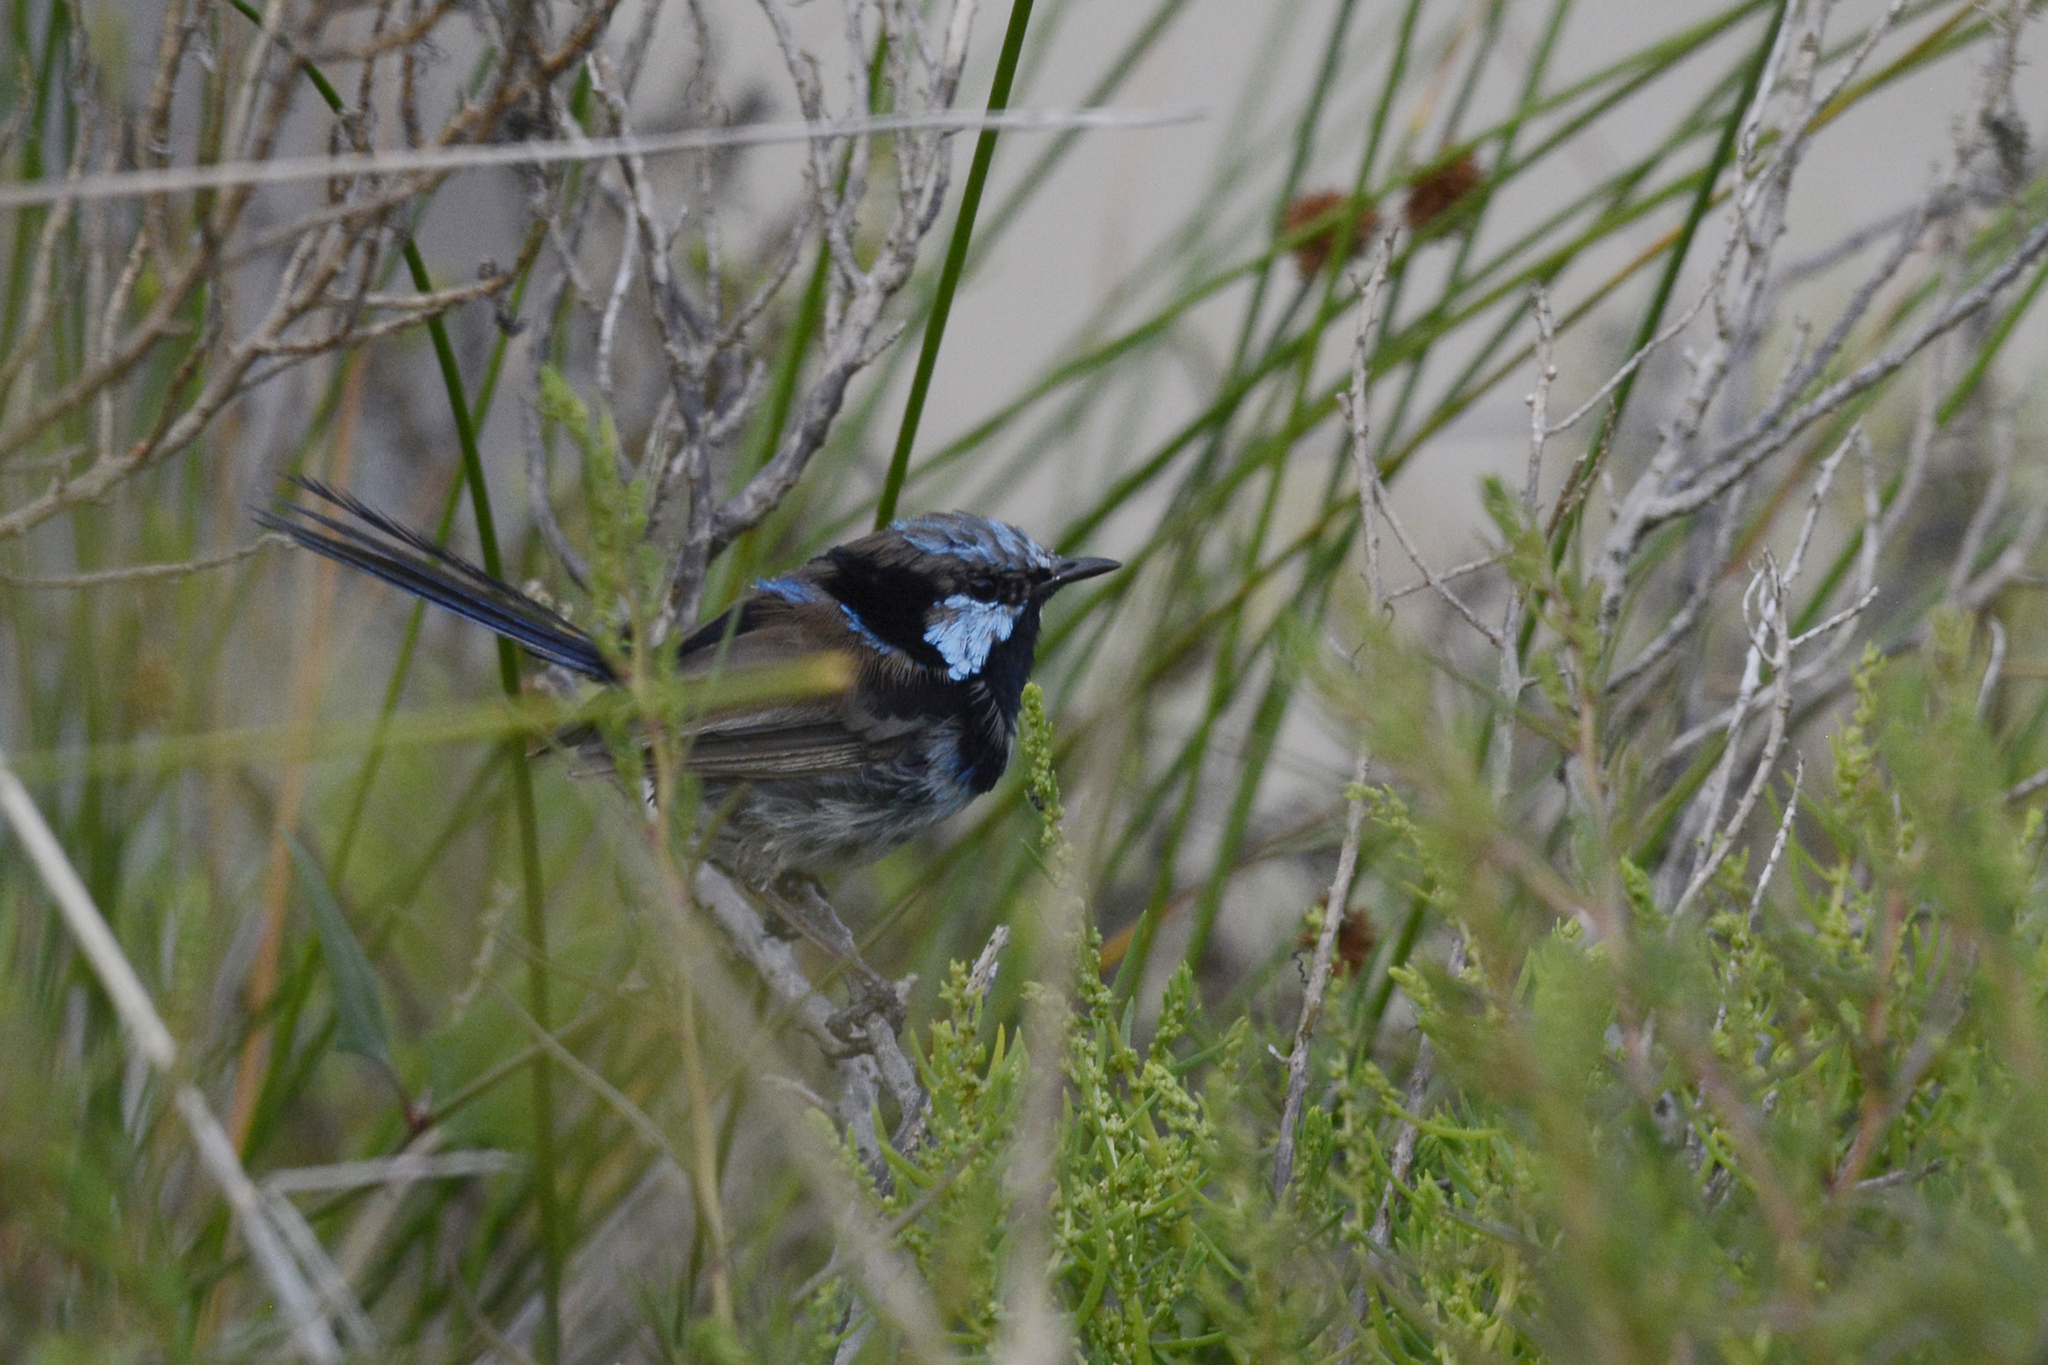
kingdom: Animalia
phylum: Chordata
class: Aves
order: Passeriformes
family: Maluridae
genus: Malurus
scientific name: Malurus cyaneus
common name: Superb fairywren
